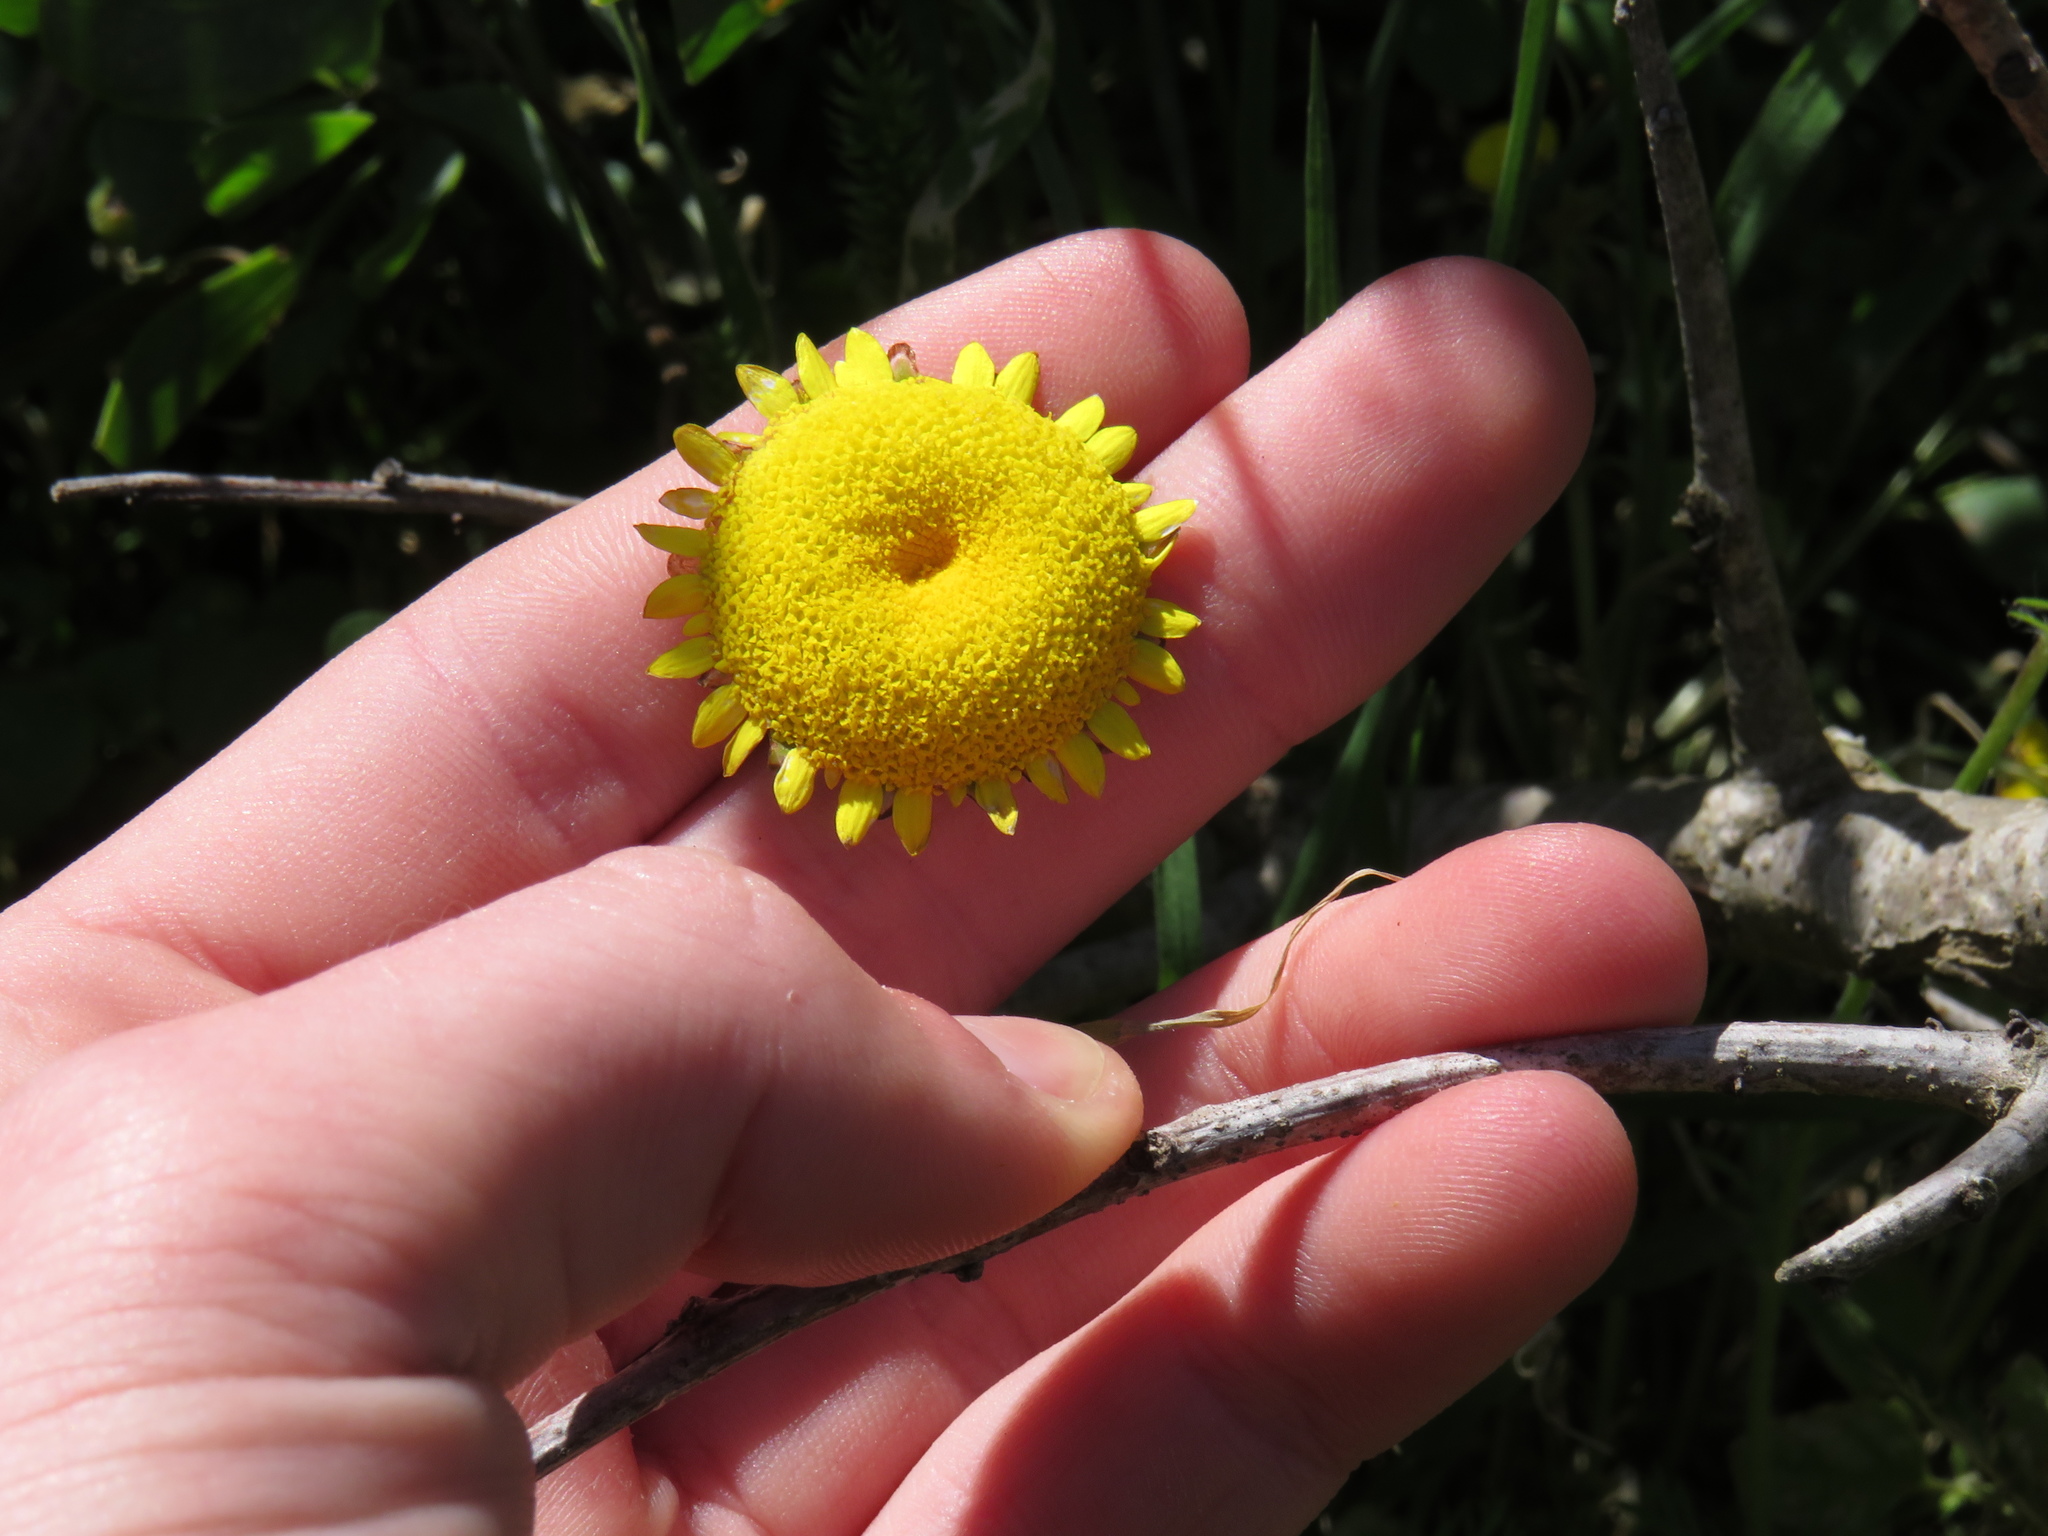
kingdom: Plantae
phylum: Tracheophyta
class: Magnoliopsida
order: Asterales
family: Asteraceae
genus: Cotula
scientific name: Cotula pruinosa
